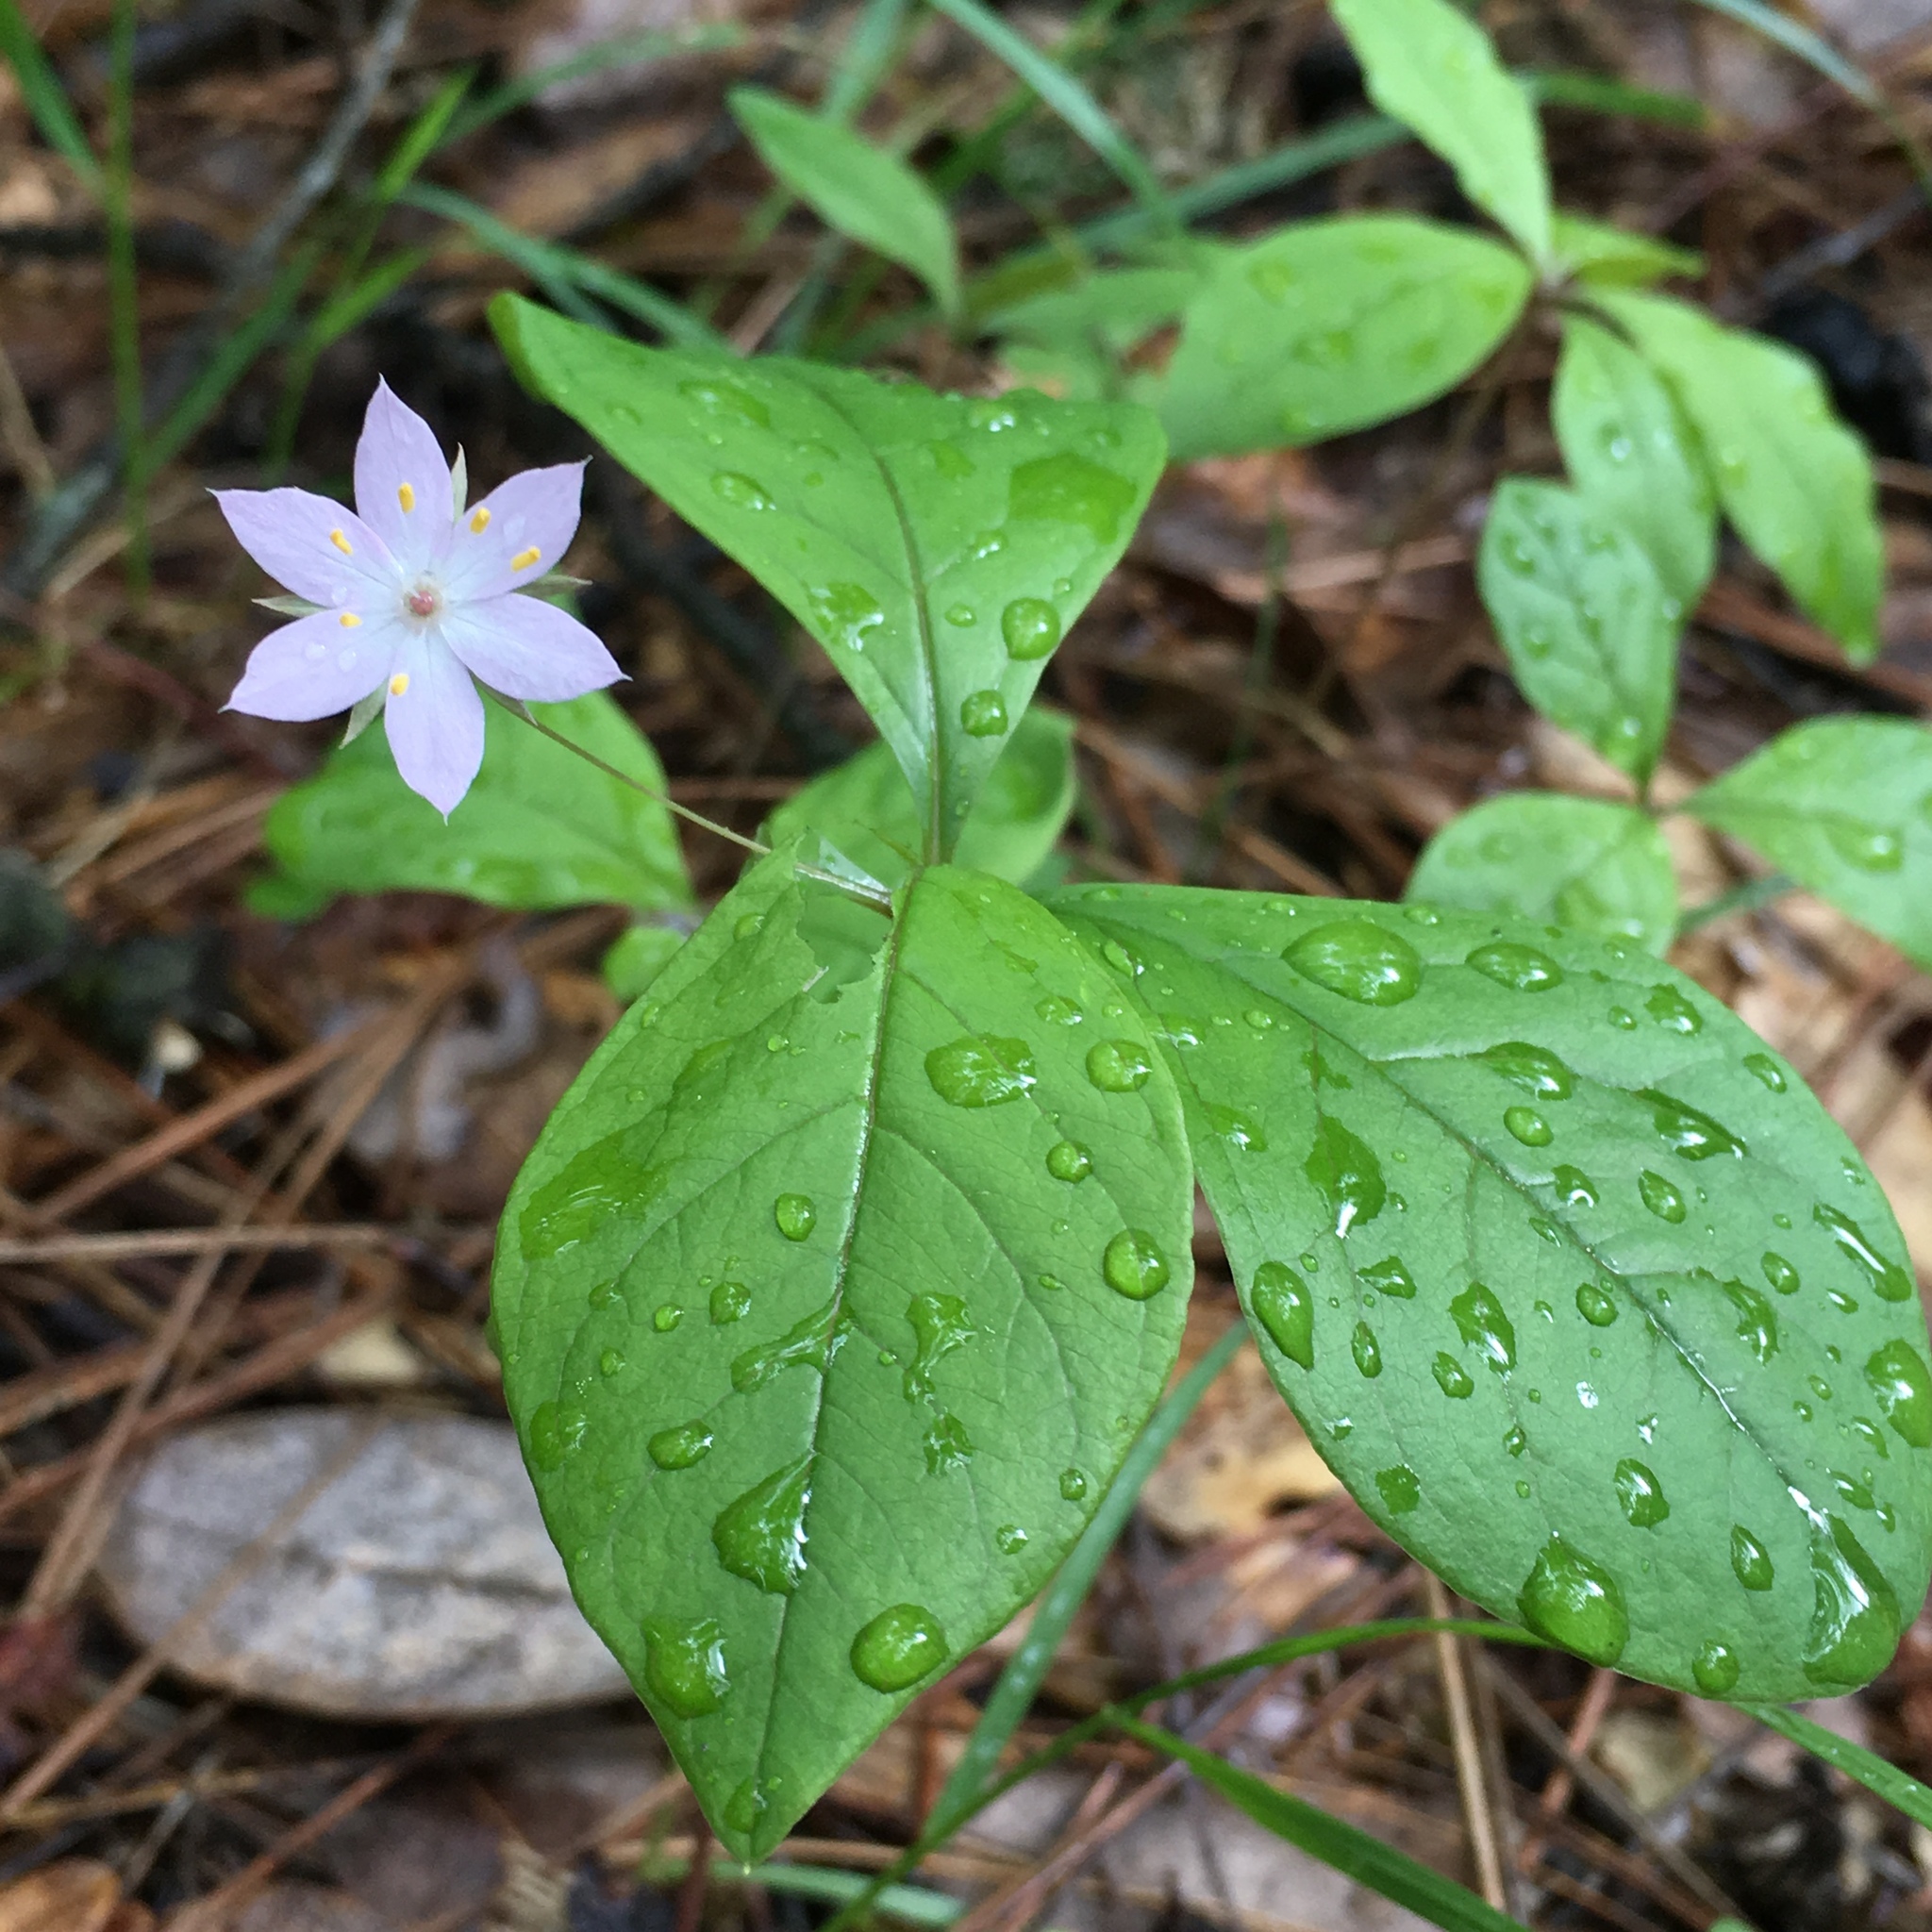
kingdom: Plantae
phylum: Tracheophyta
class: Magnoliopsida
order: Ericales
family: Primulaceae
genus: Lysimachia
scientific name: Lysimachia latifolia
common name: Pacific starflower
